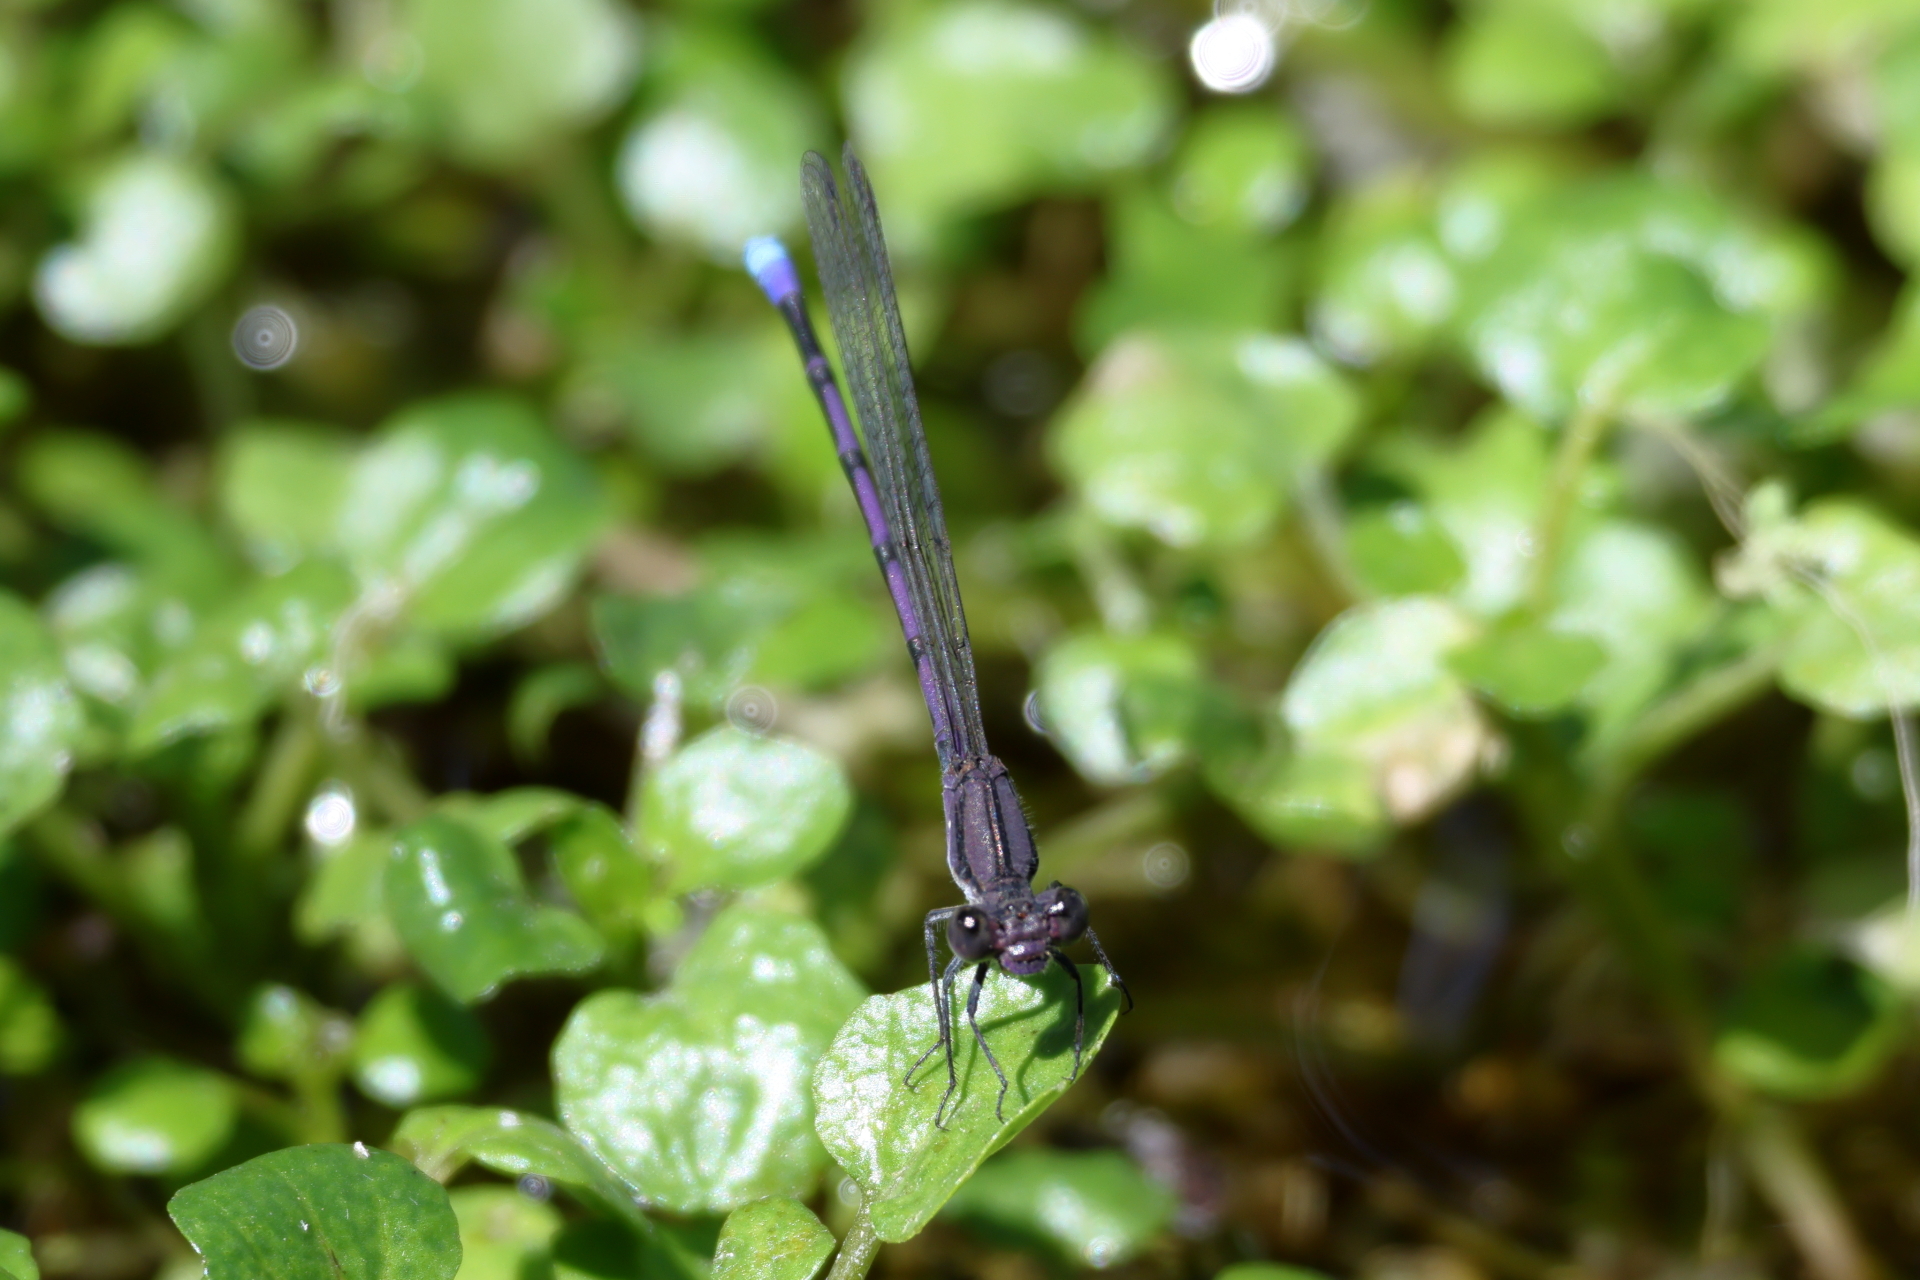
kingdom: Animalia
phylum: Arthropoda
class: Insecta
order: Odonata
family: Coenagrionidae
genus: Argia
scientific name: Argia fumipennis
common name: Variable dancer
